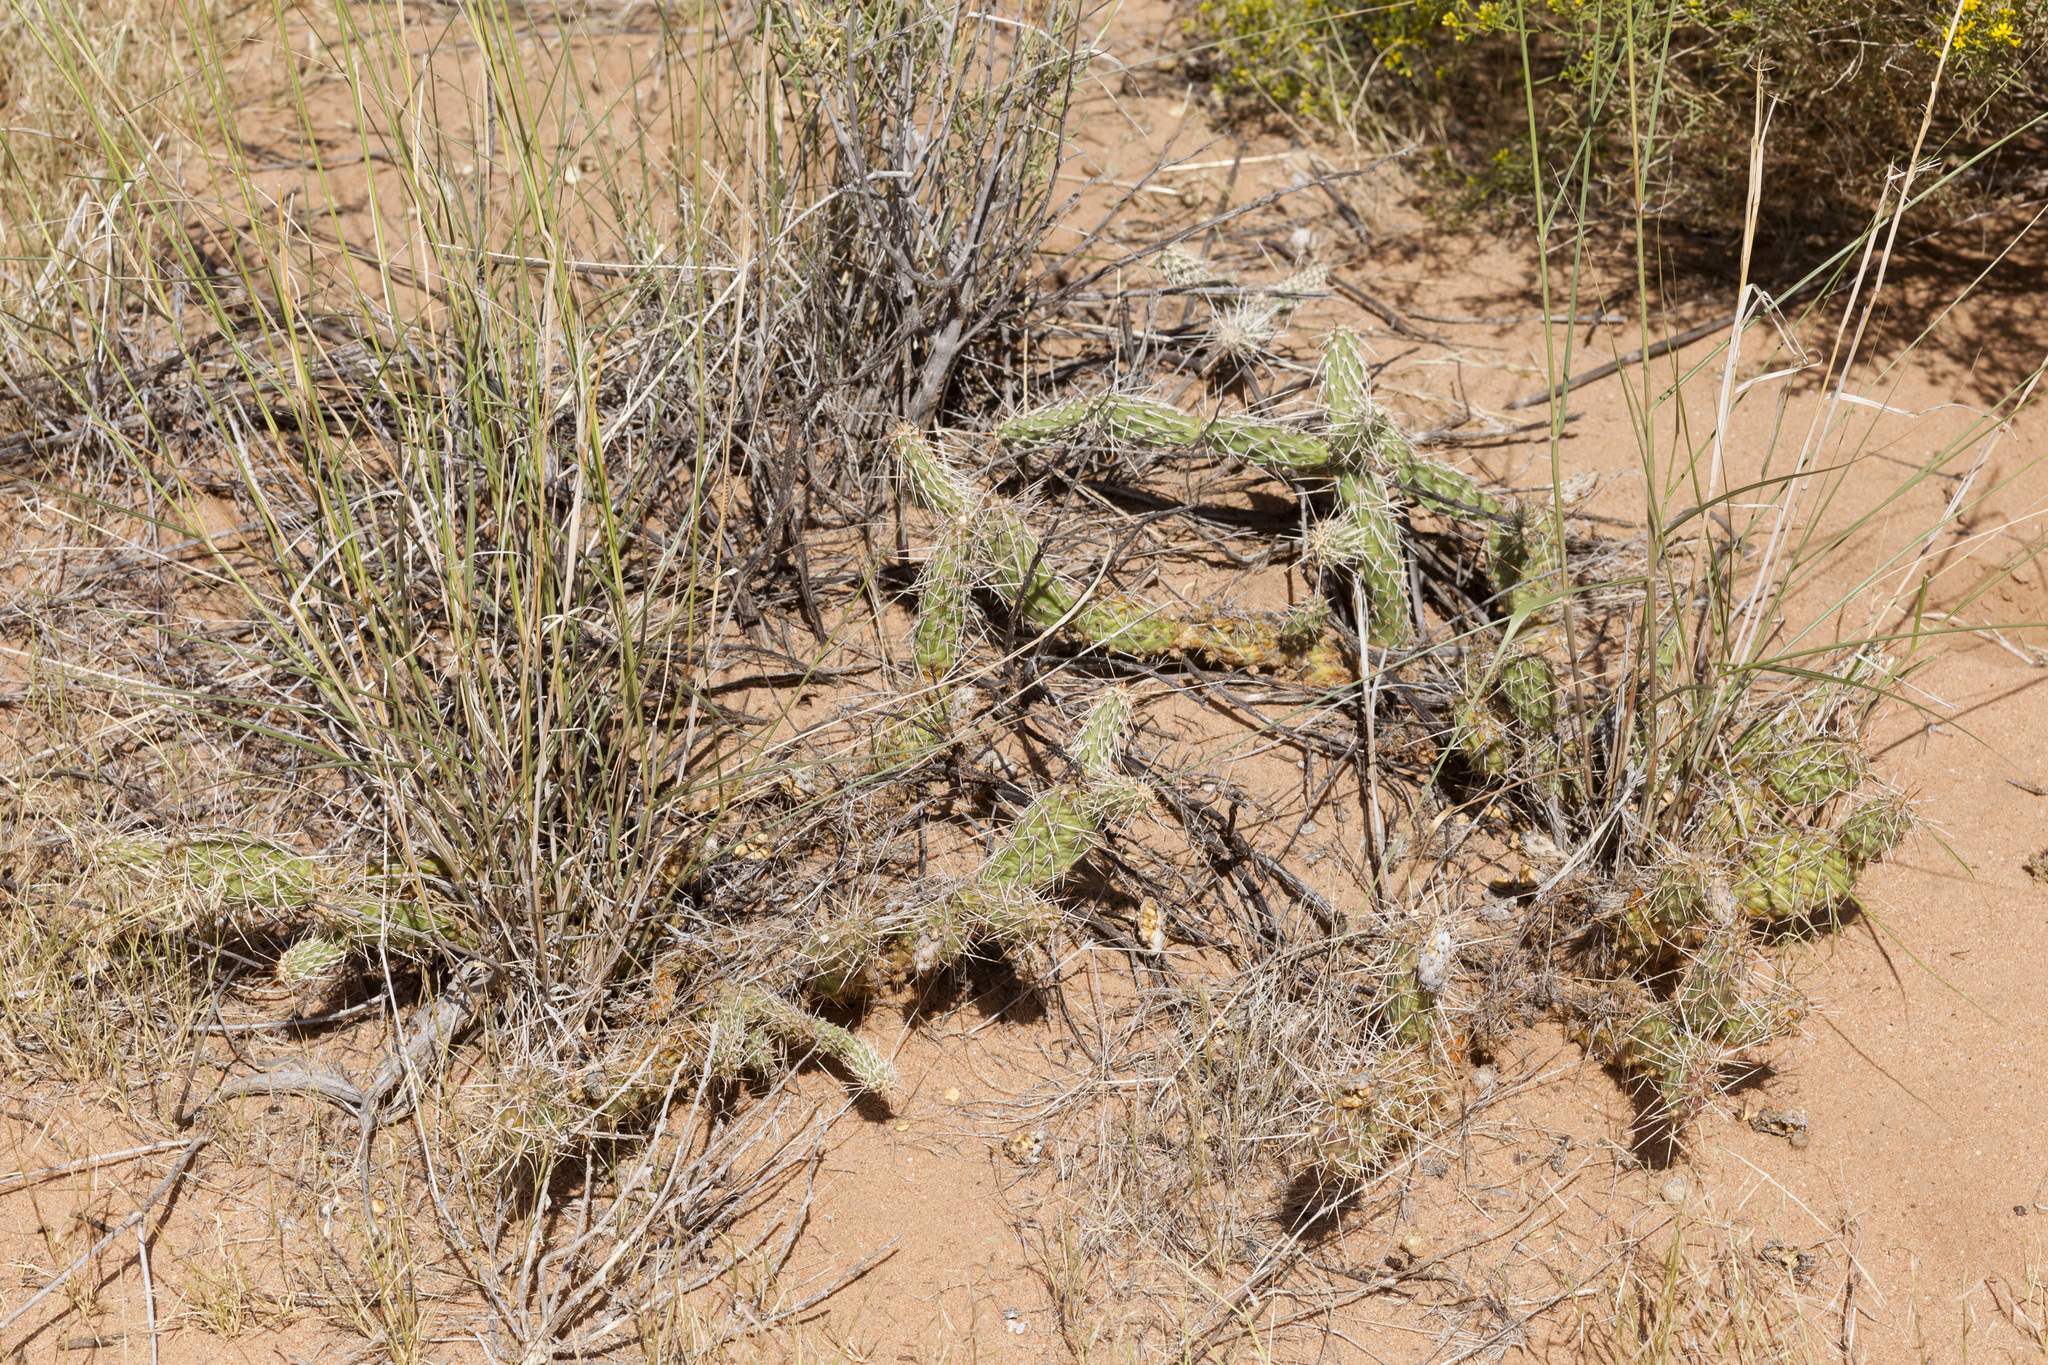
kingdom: Plantae
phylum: Tracheophyta
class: Magnoliopsida
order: Caryophyllales
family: Cactaceae
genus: Opuntia
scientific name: Opuntia polyacantha
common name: Plains prickly-pear
